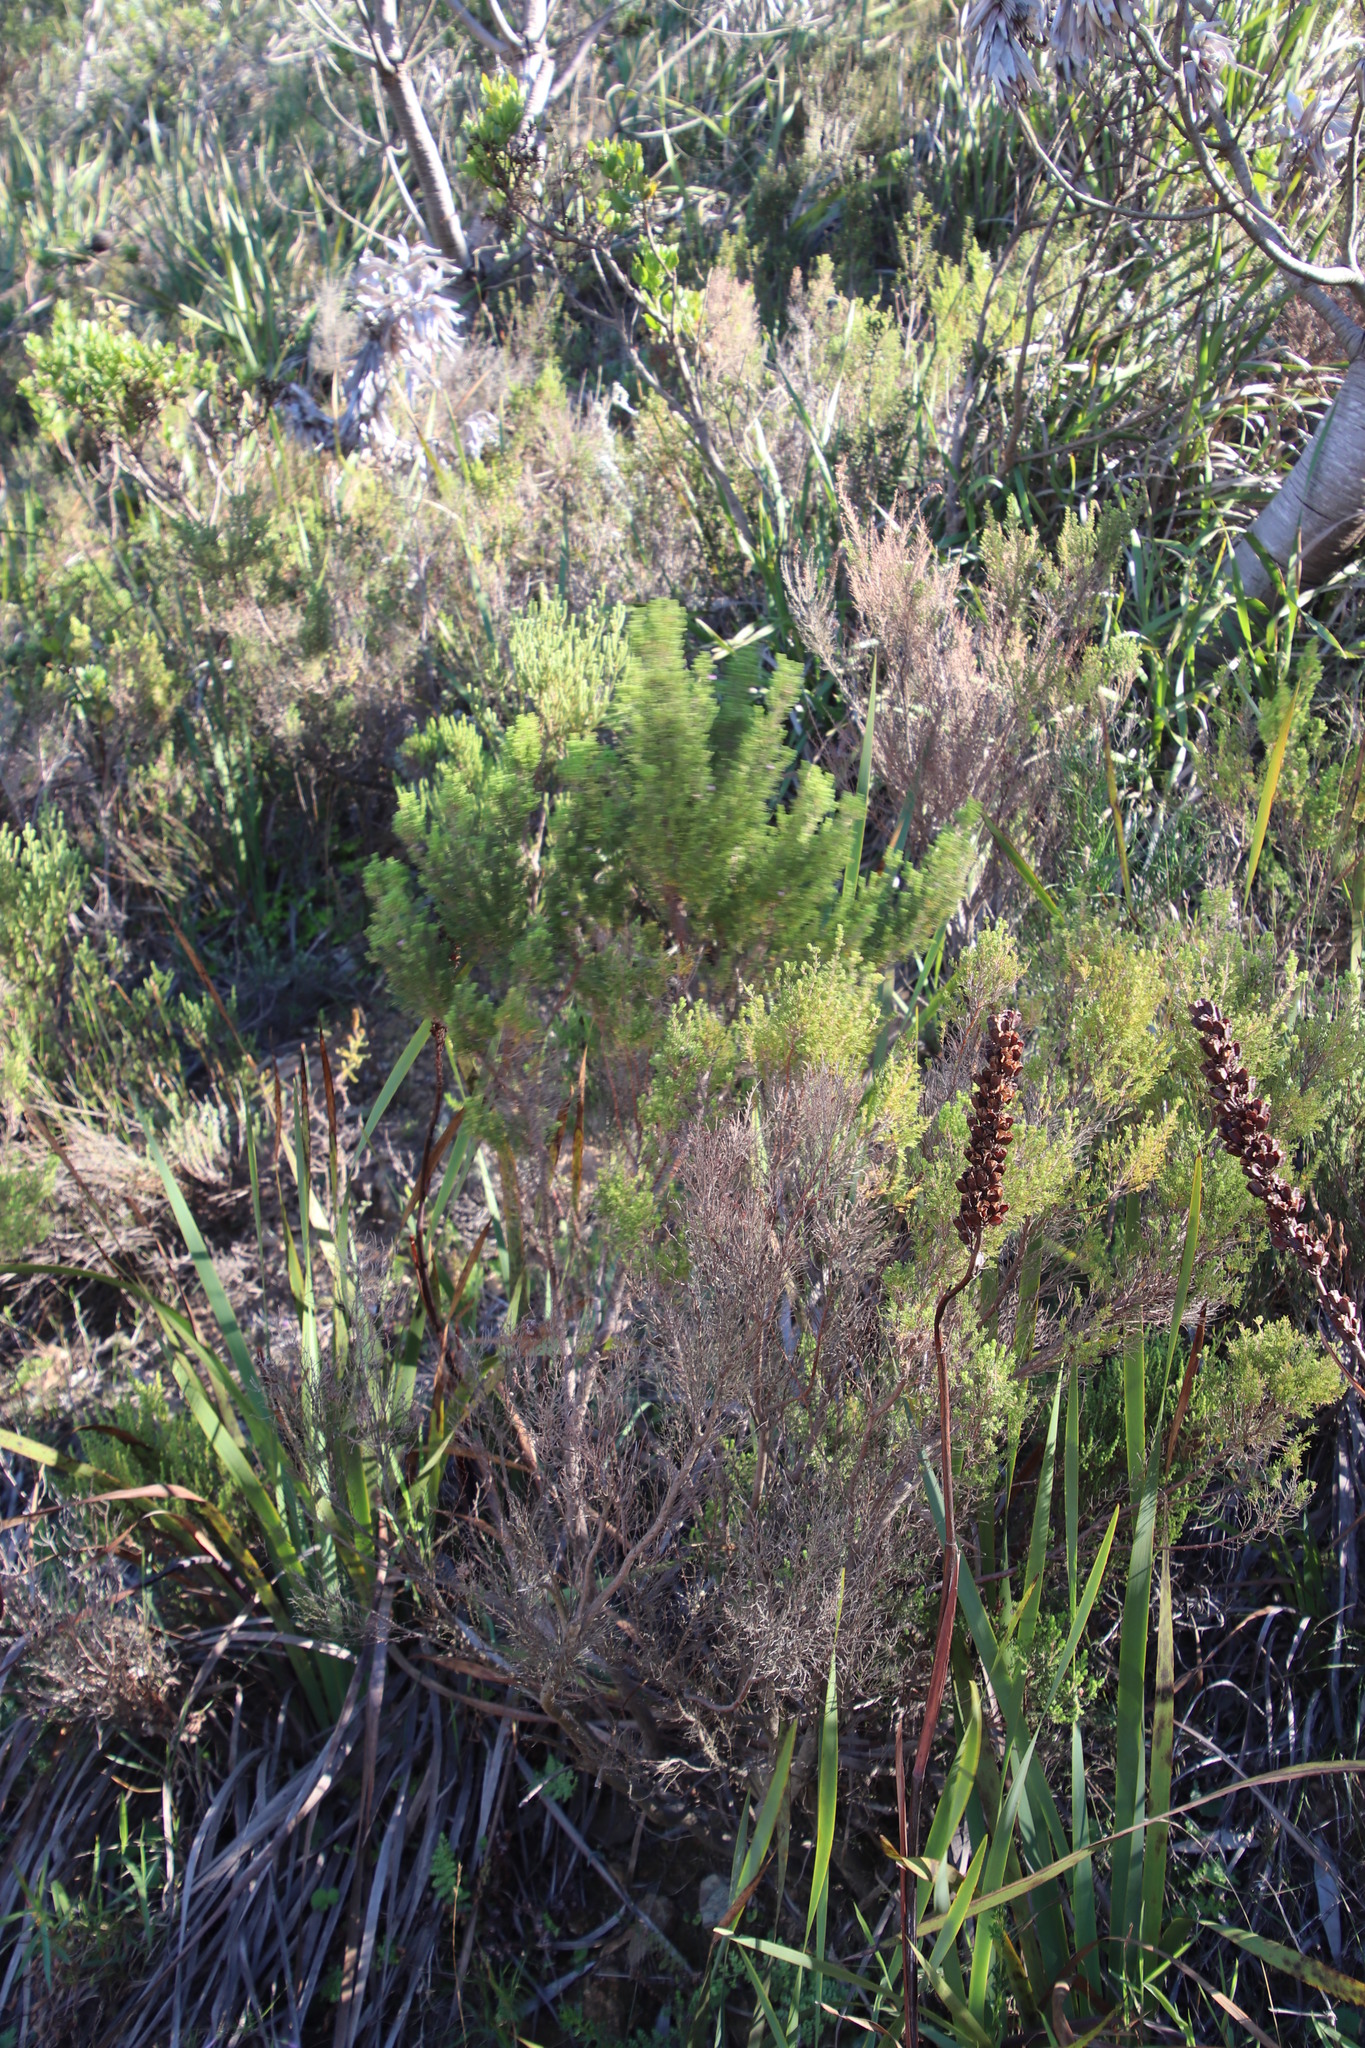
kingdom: Plantae
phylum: Tracheophyta
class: Magnoliopsida
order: Ericales
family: Ericaceae
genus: Erica
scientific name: Erica hirtiflora
